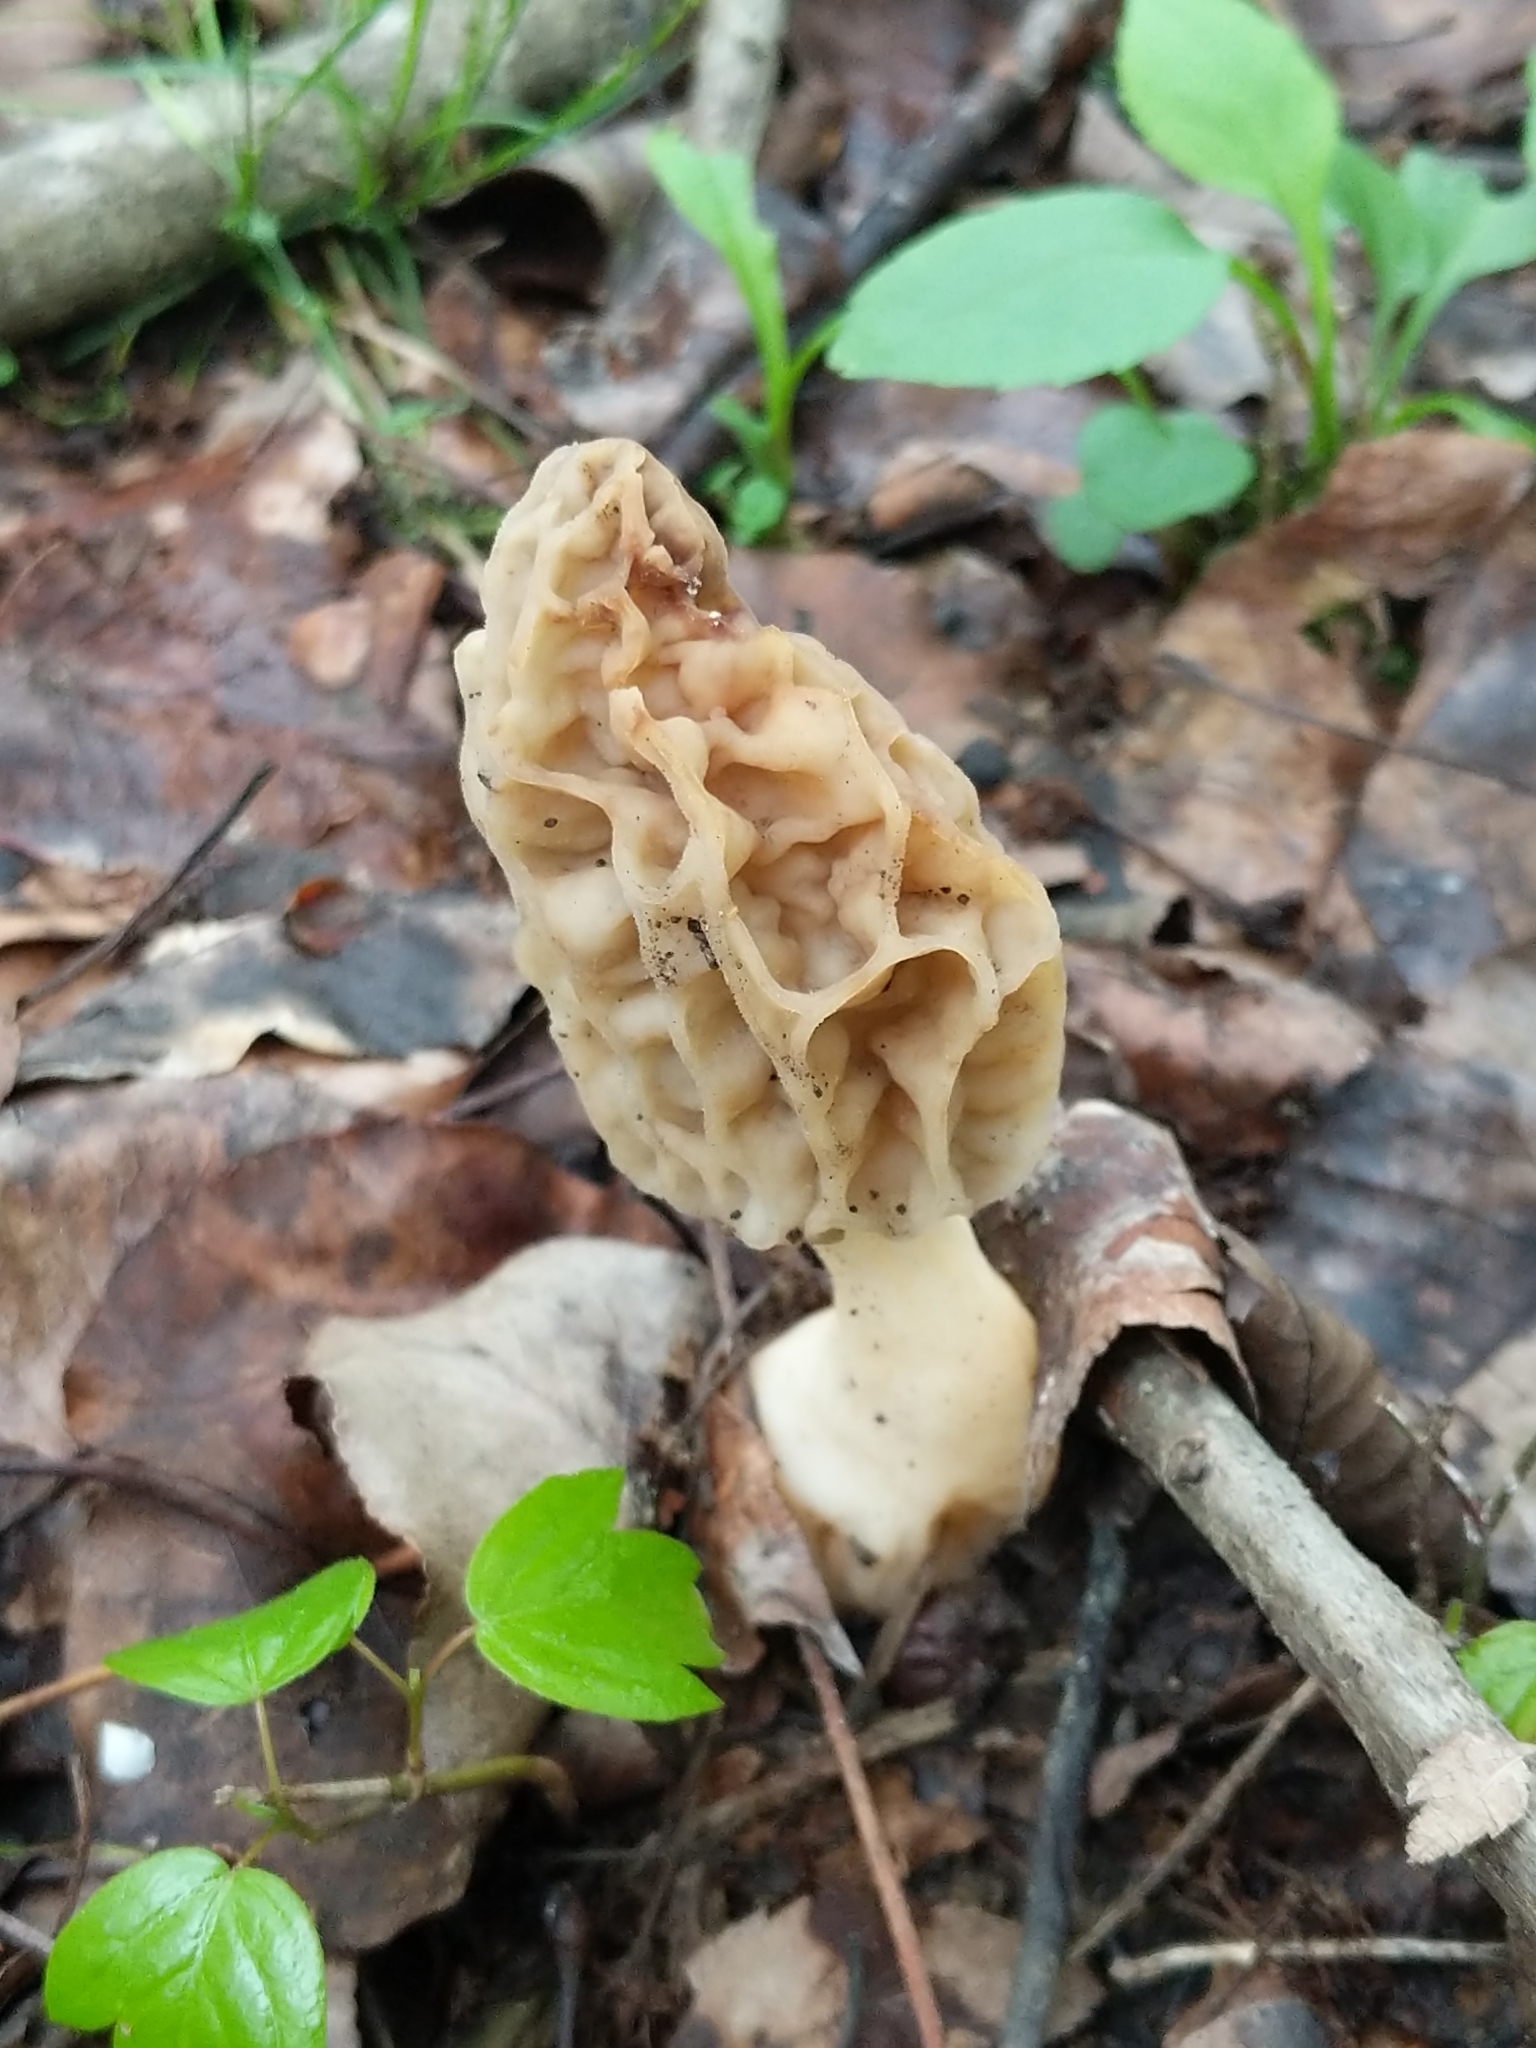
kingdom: Fungi
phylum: Ascomycota
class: Pezizomycetes
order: Pezizales
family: Morchellaceae
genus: Morchella
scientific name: Morchella diminutiva
